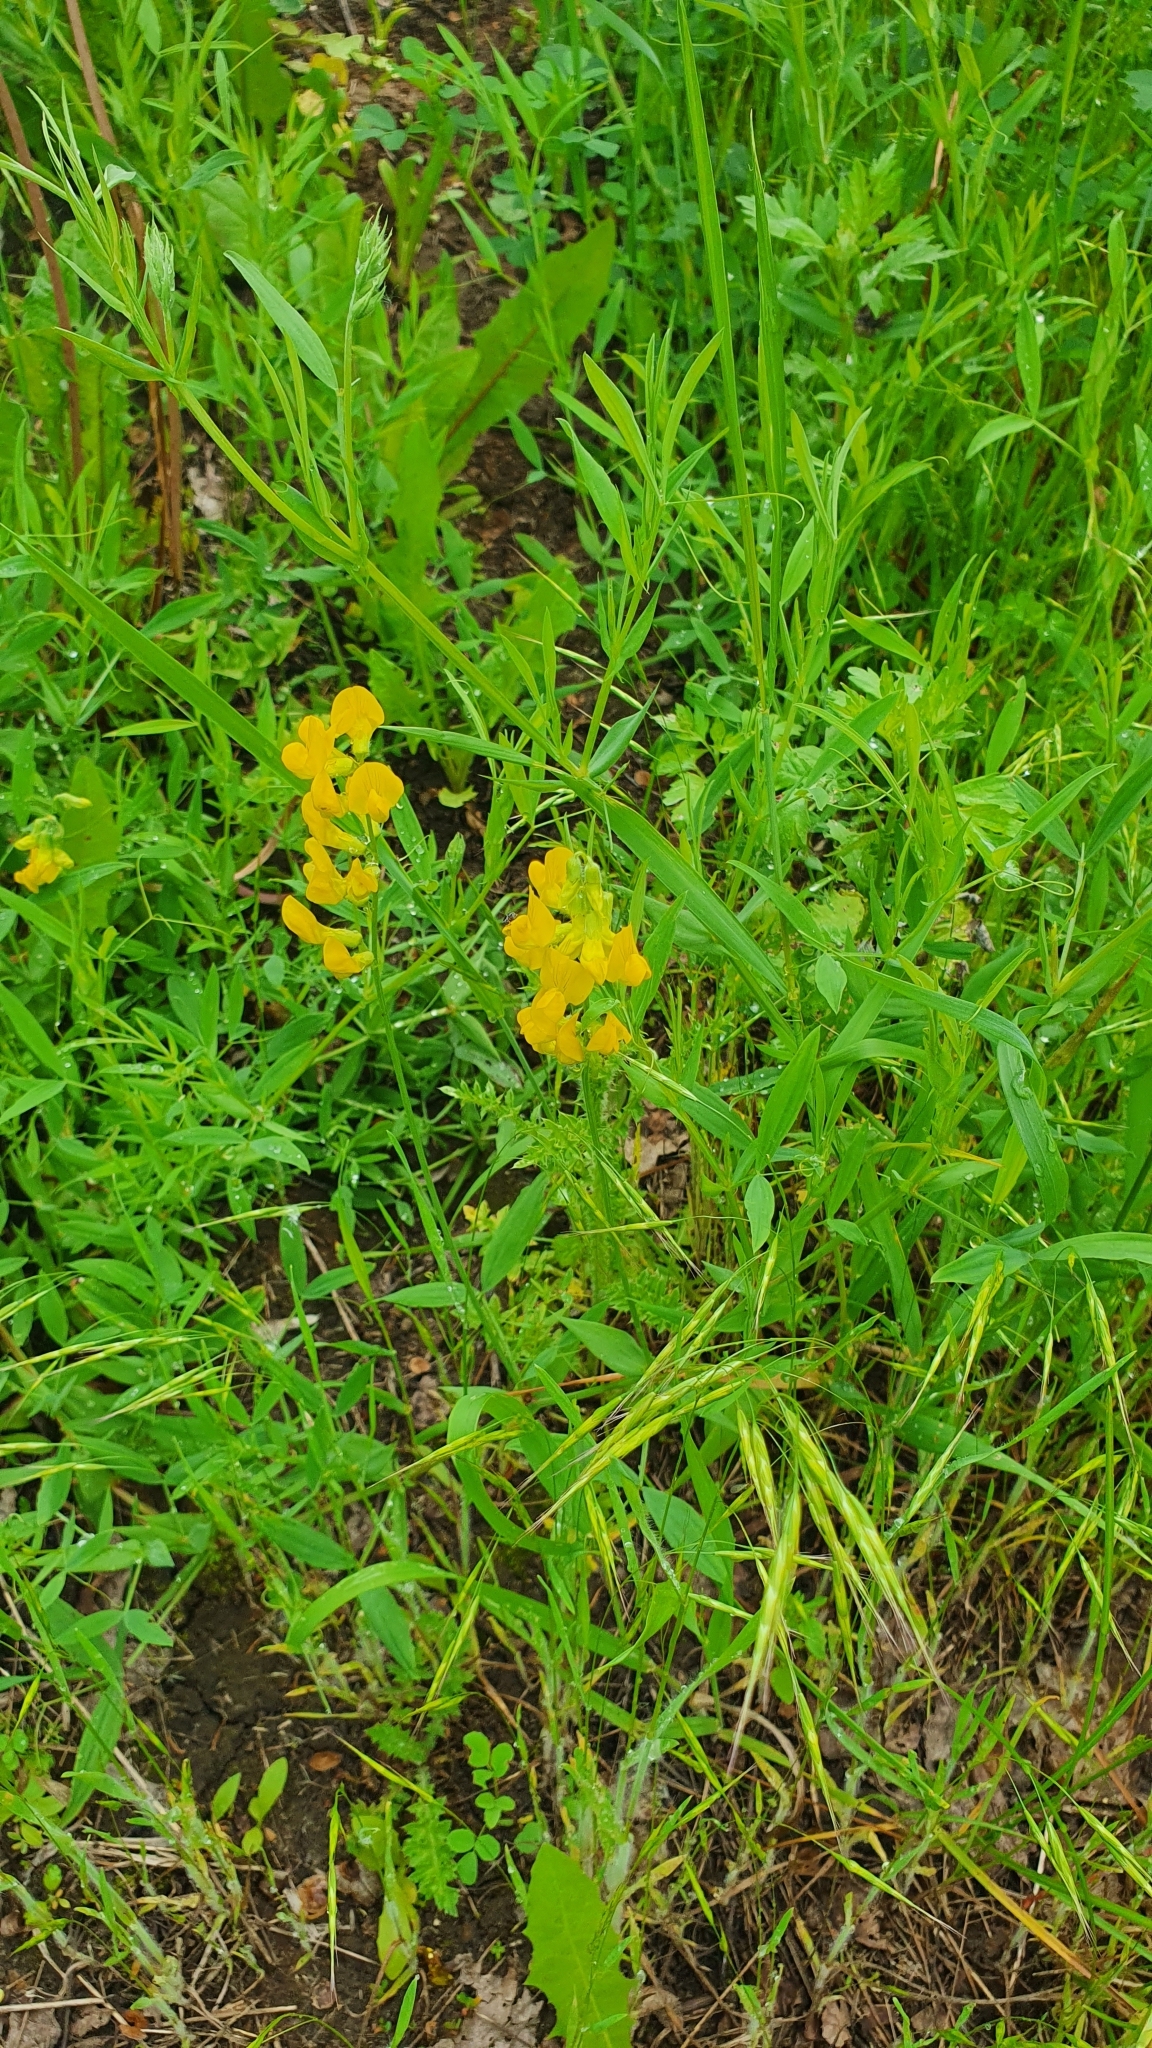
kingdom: Plantae
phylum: Tracheophyta
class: Magnoliopsida
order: Fabales
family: Fabaceae
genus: Lathyrus
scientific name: Lathyrus pratensis
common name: Meadow vetchling
